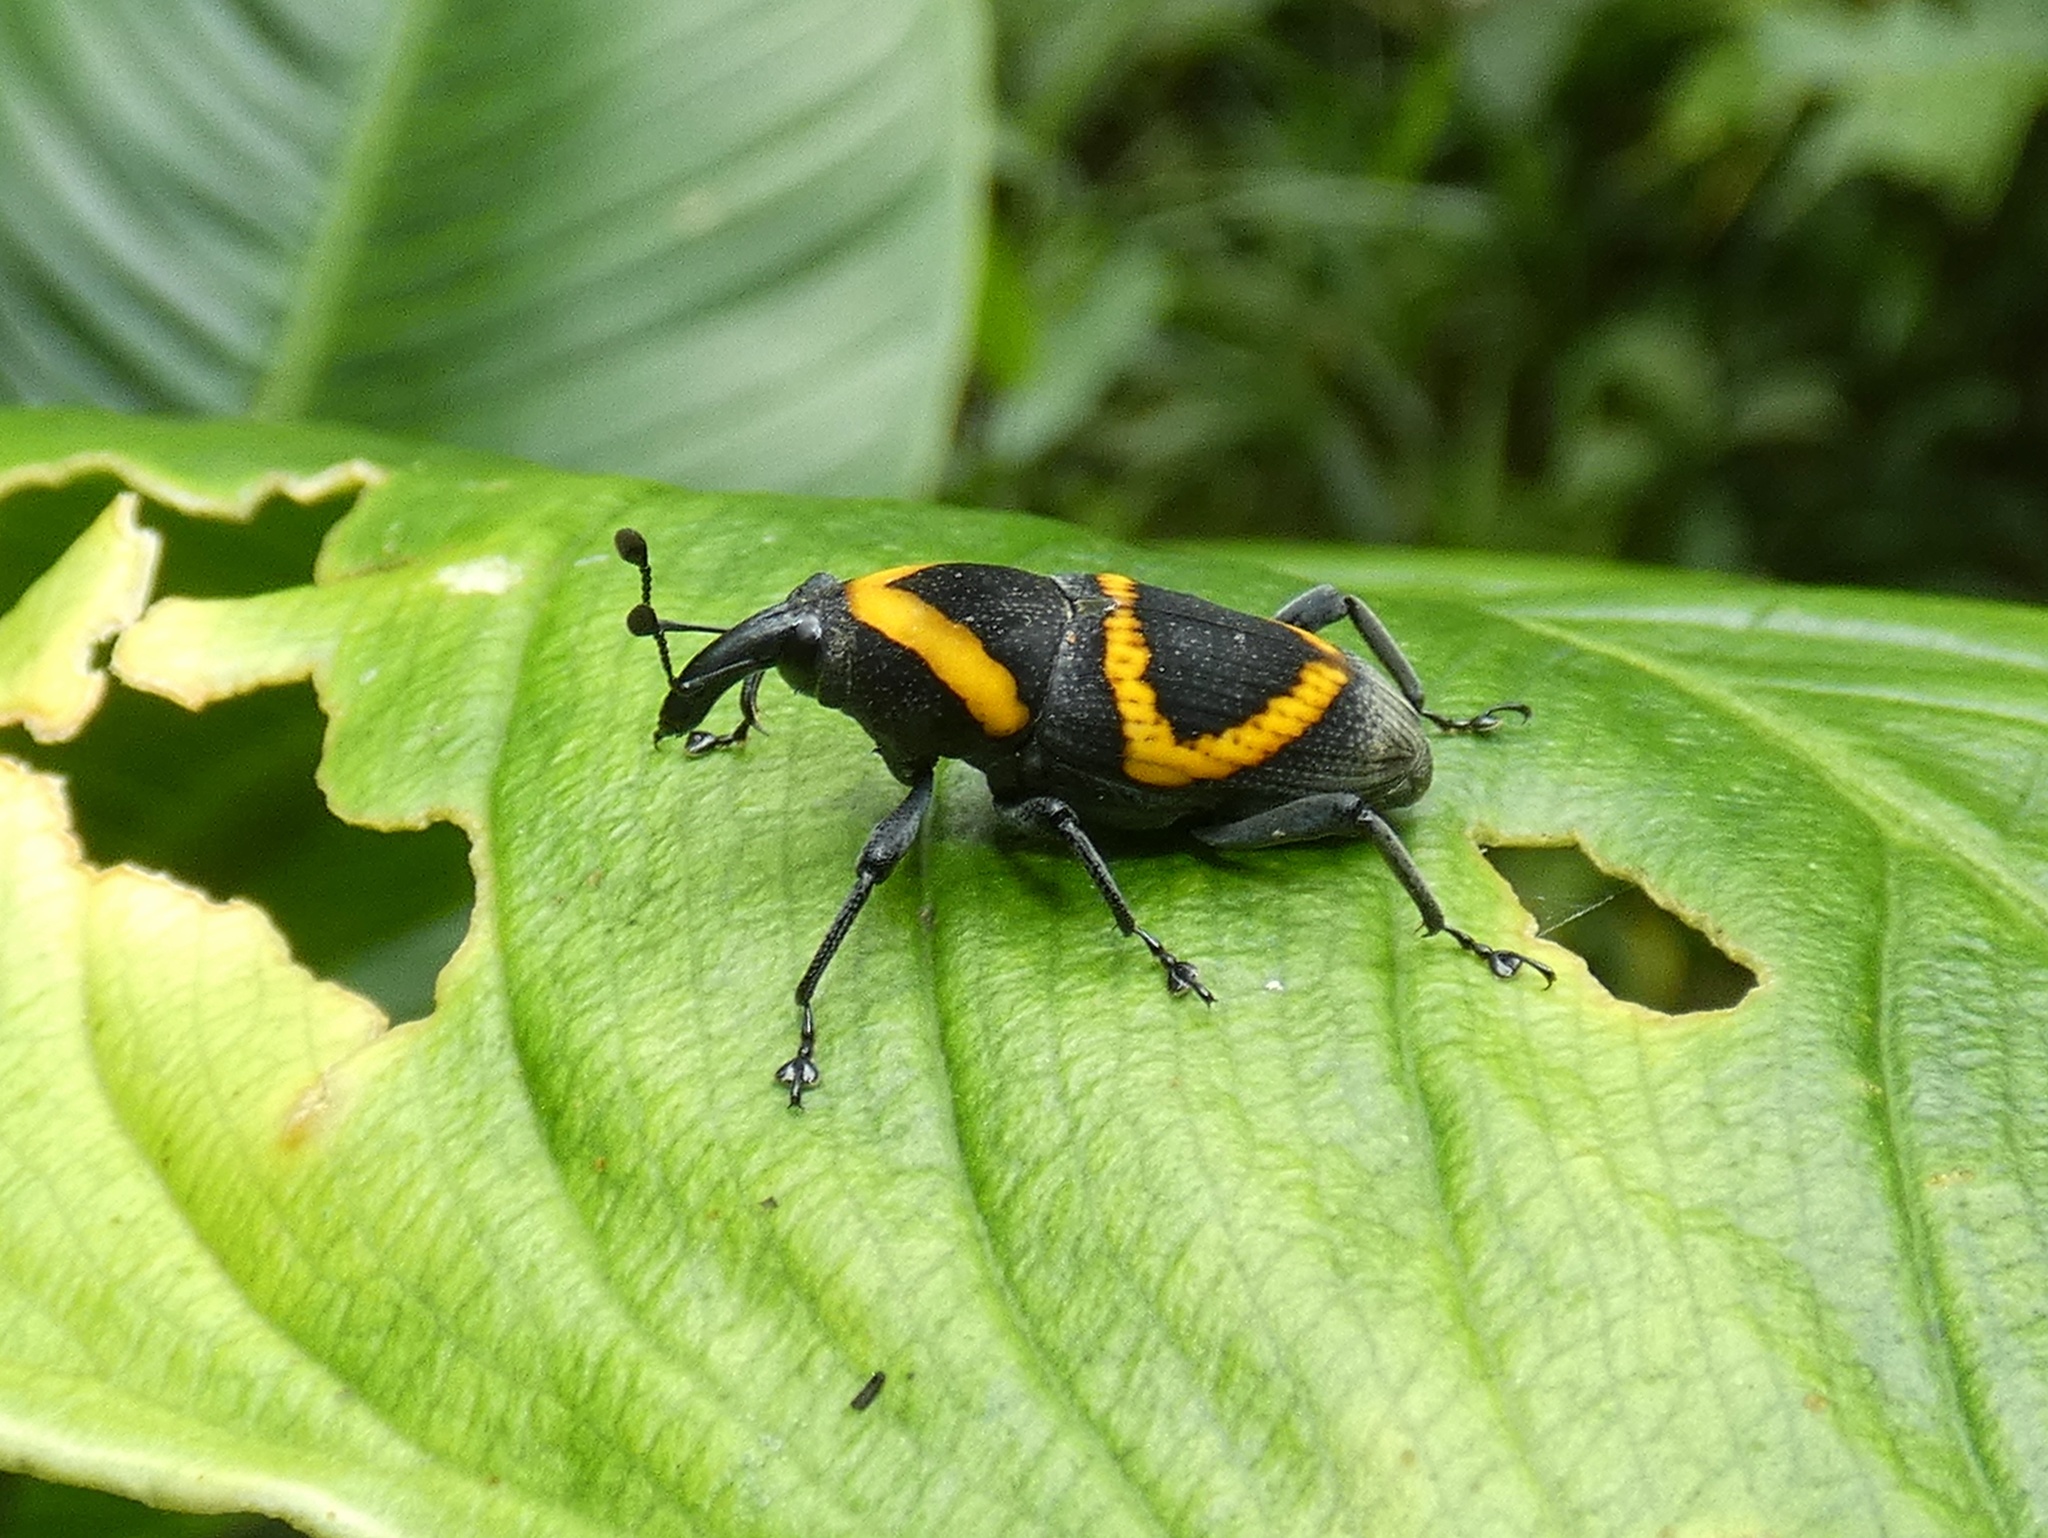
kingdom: Animalia
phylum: Arthropoda
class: Insecta
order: Coleoptera
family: Dryophthoridae
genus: Cactophagus
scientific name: Cactophagus
